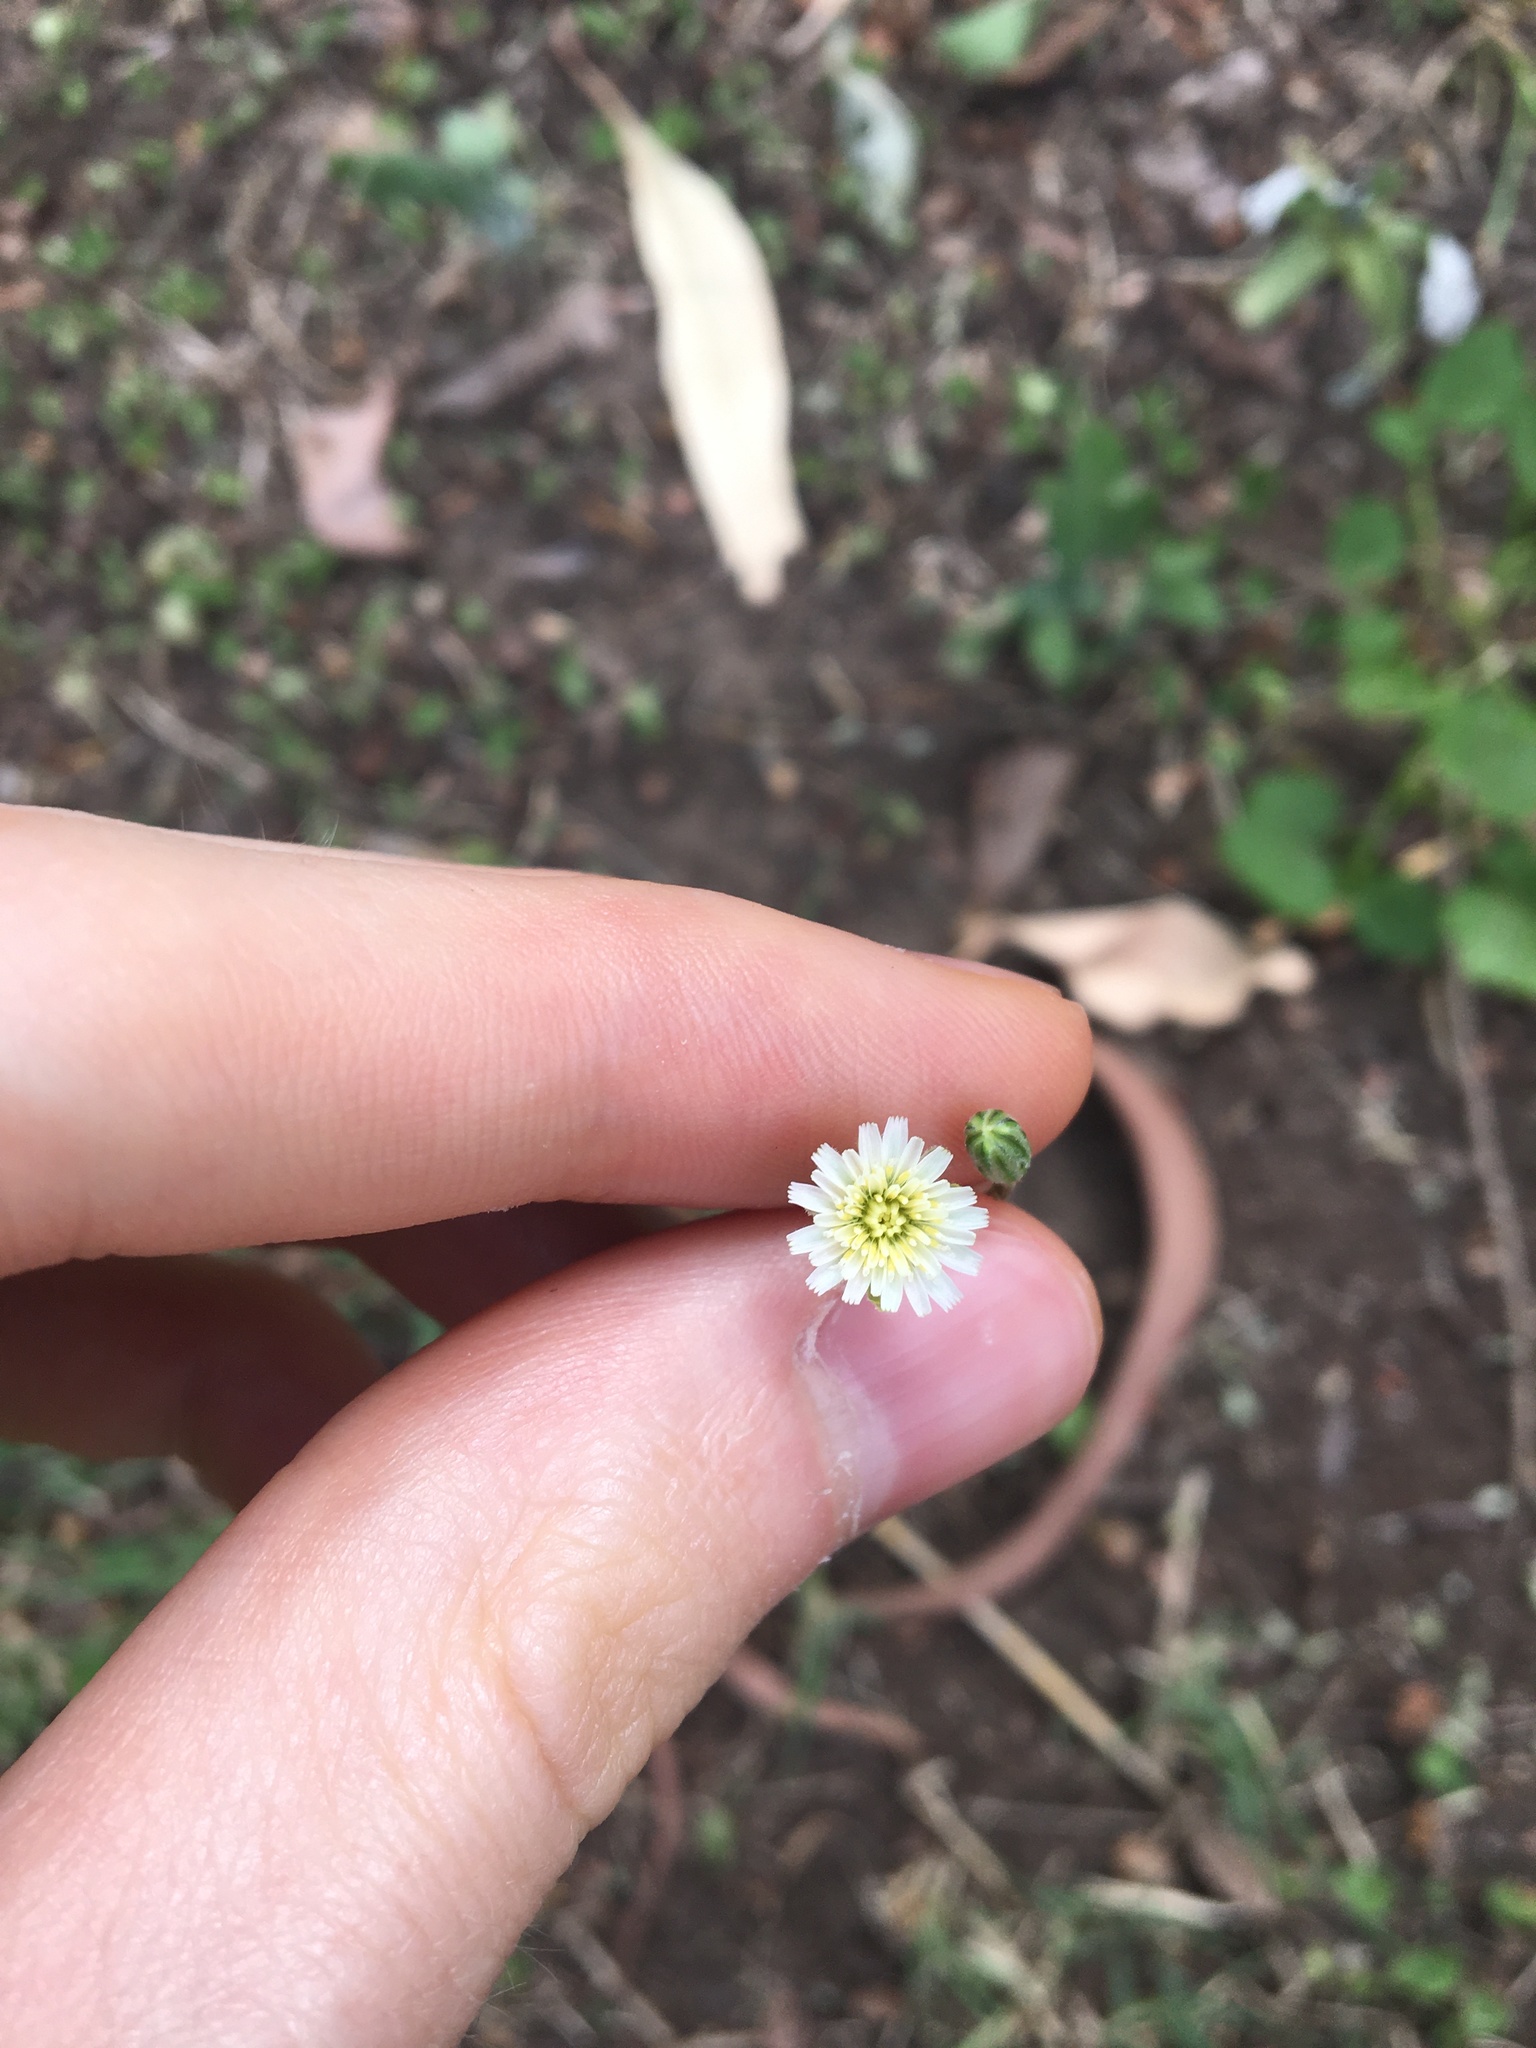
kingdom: Plantae
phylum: Tracheophyta
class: Magnoliopsida
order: Asterales
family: Asteraceae
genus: Hypochaeris
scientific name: Hypochaeris albiflora
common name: White flatweed
